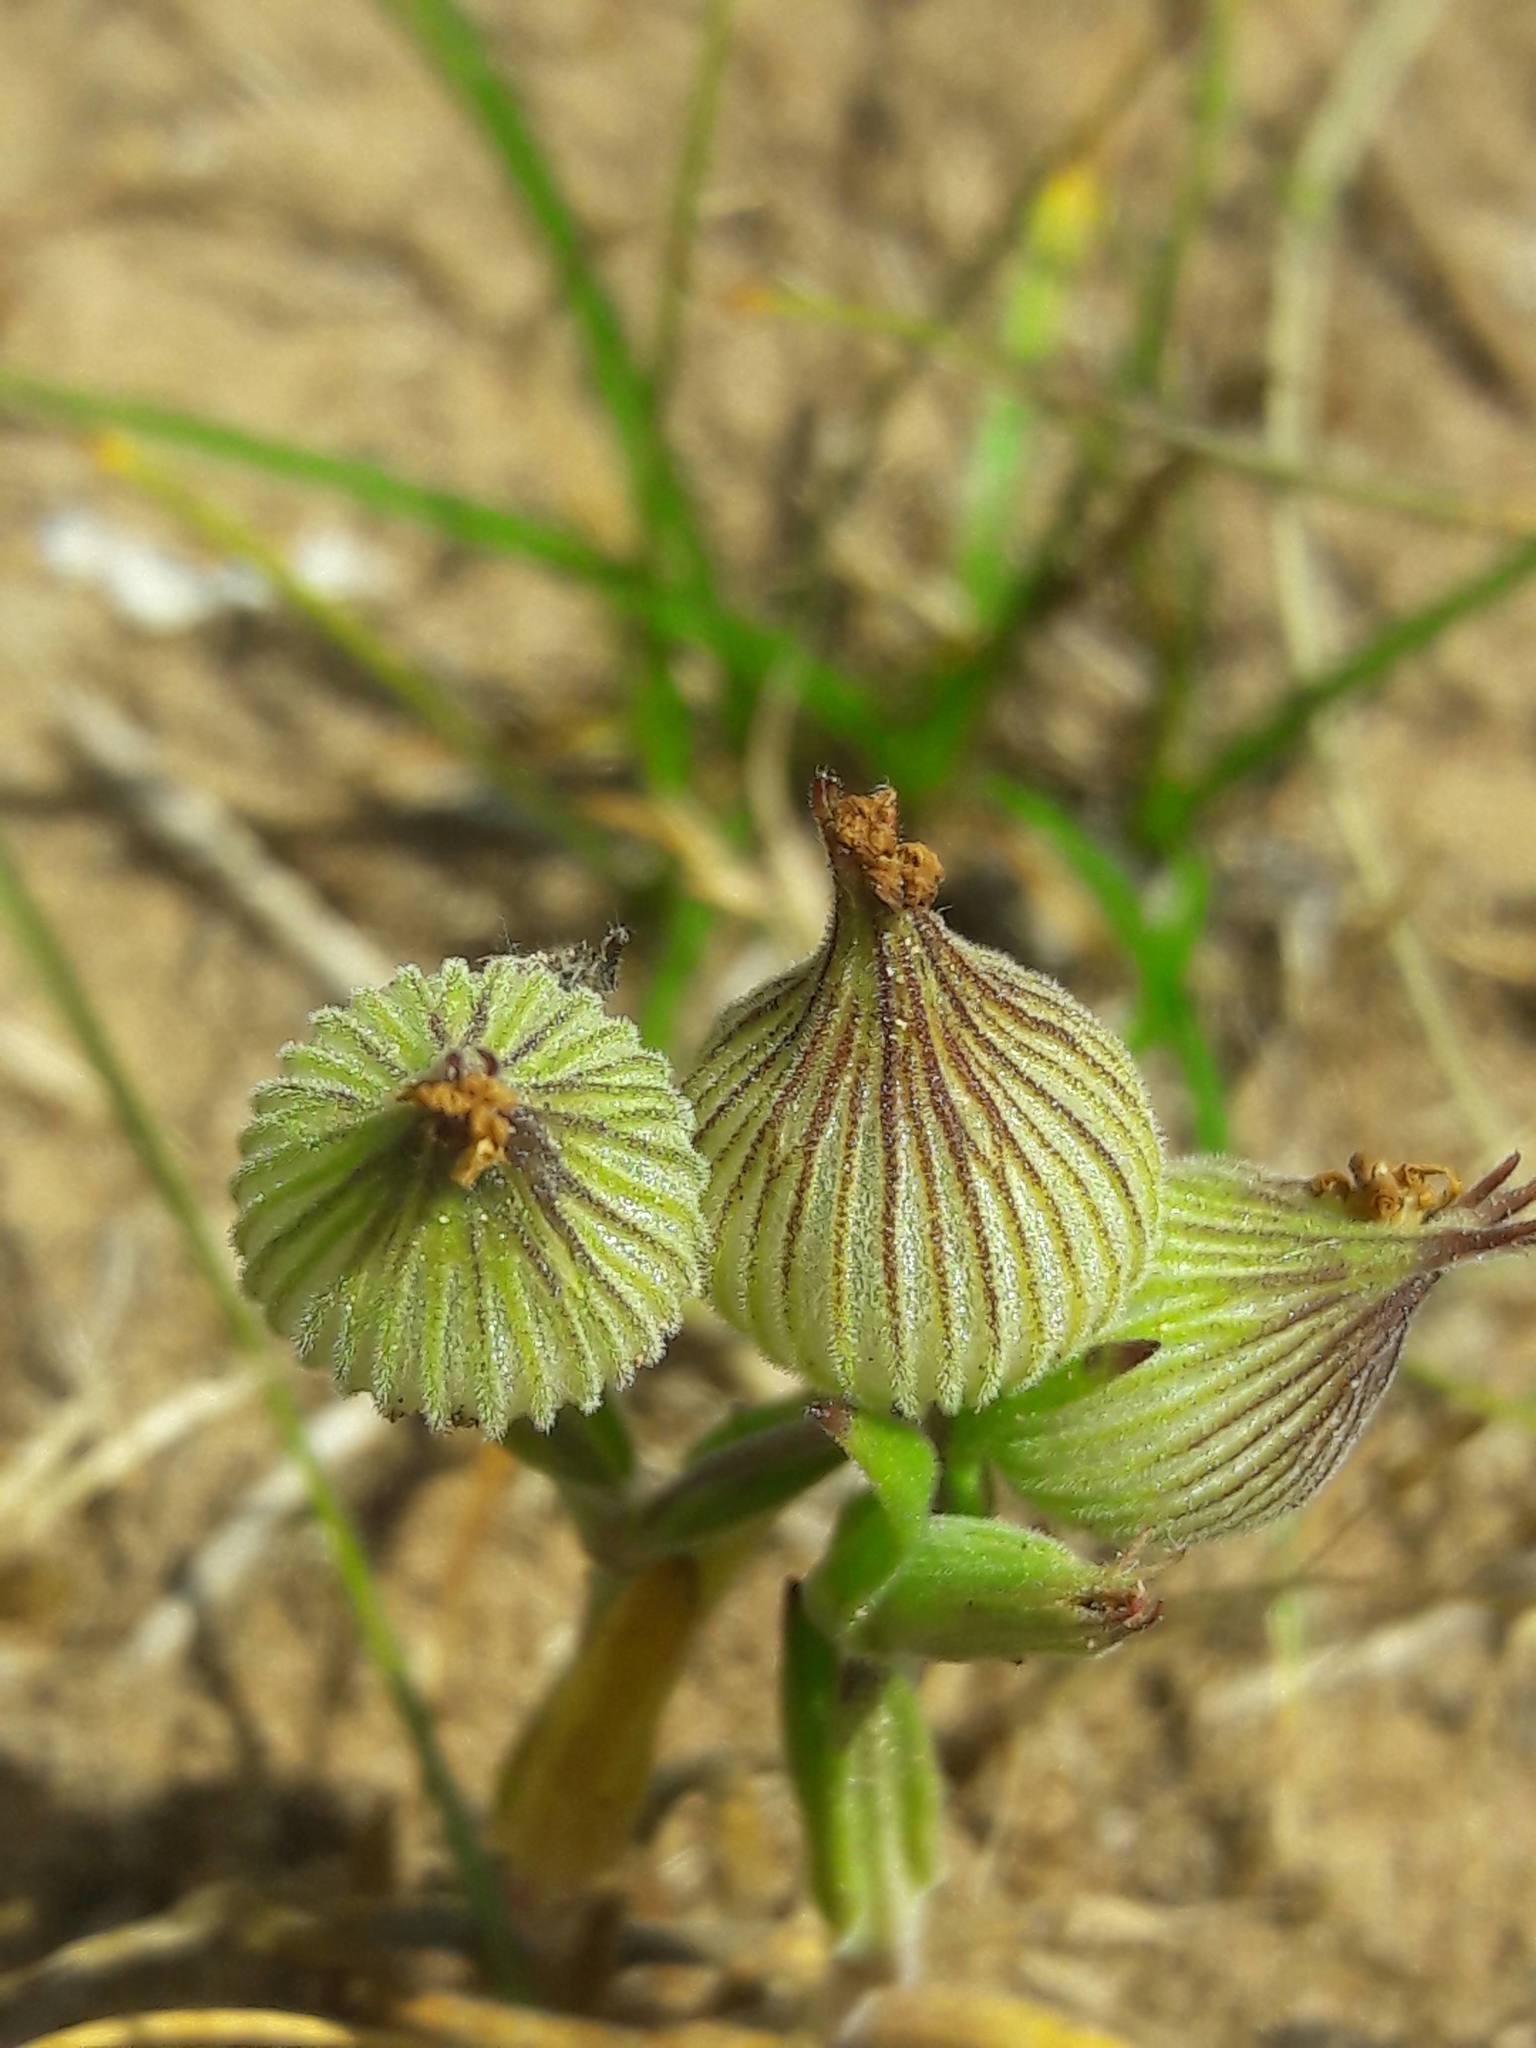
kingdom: Plantae
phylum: Tracheophyta
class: Magnoliopsida
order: Caryophyllales
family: Caryophyllaceae
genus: Silene
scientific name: Silene conica
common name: Sand catchfly
